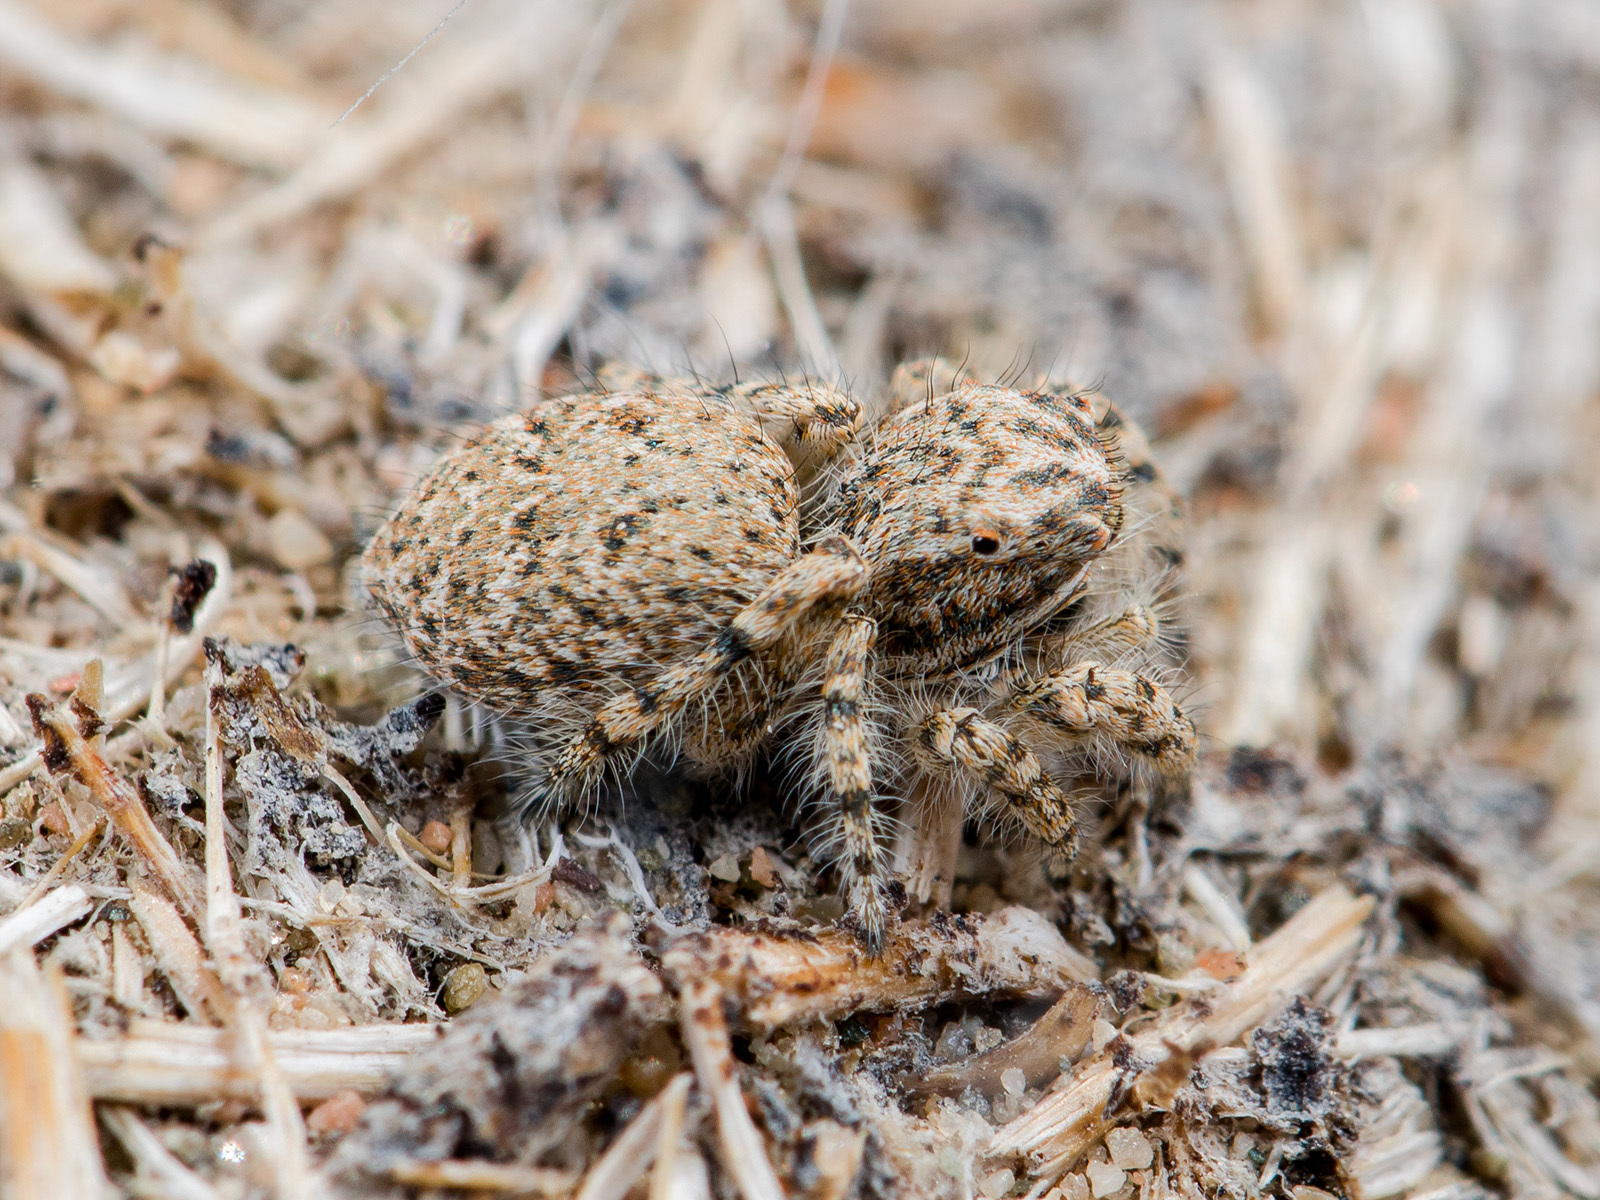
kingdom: Animalia
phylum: Arthropoda
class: Arachnida
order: Araneae
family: Salticidae
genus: Yllenus
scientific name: Yllenus turkestanicus
